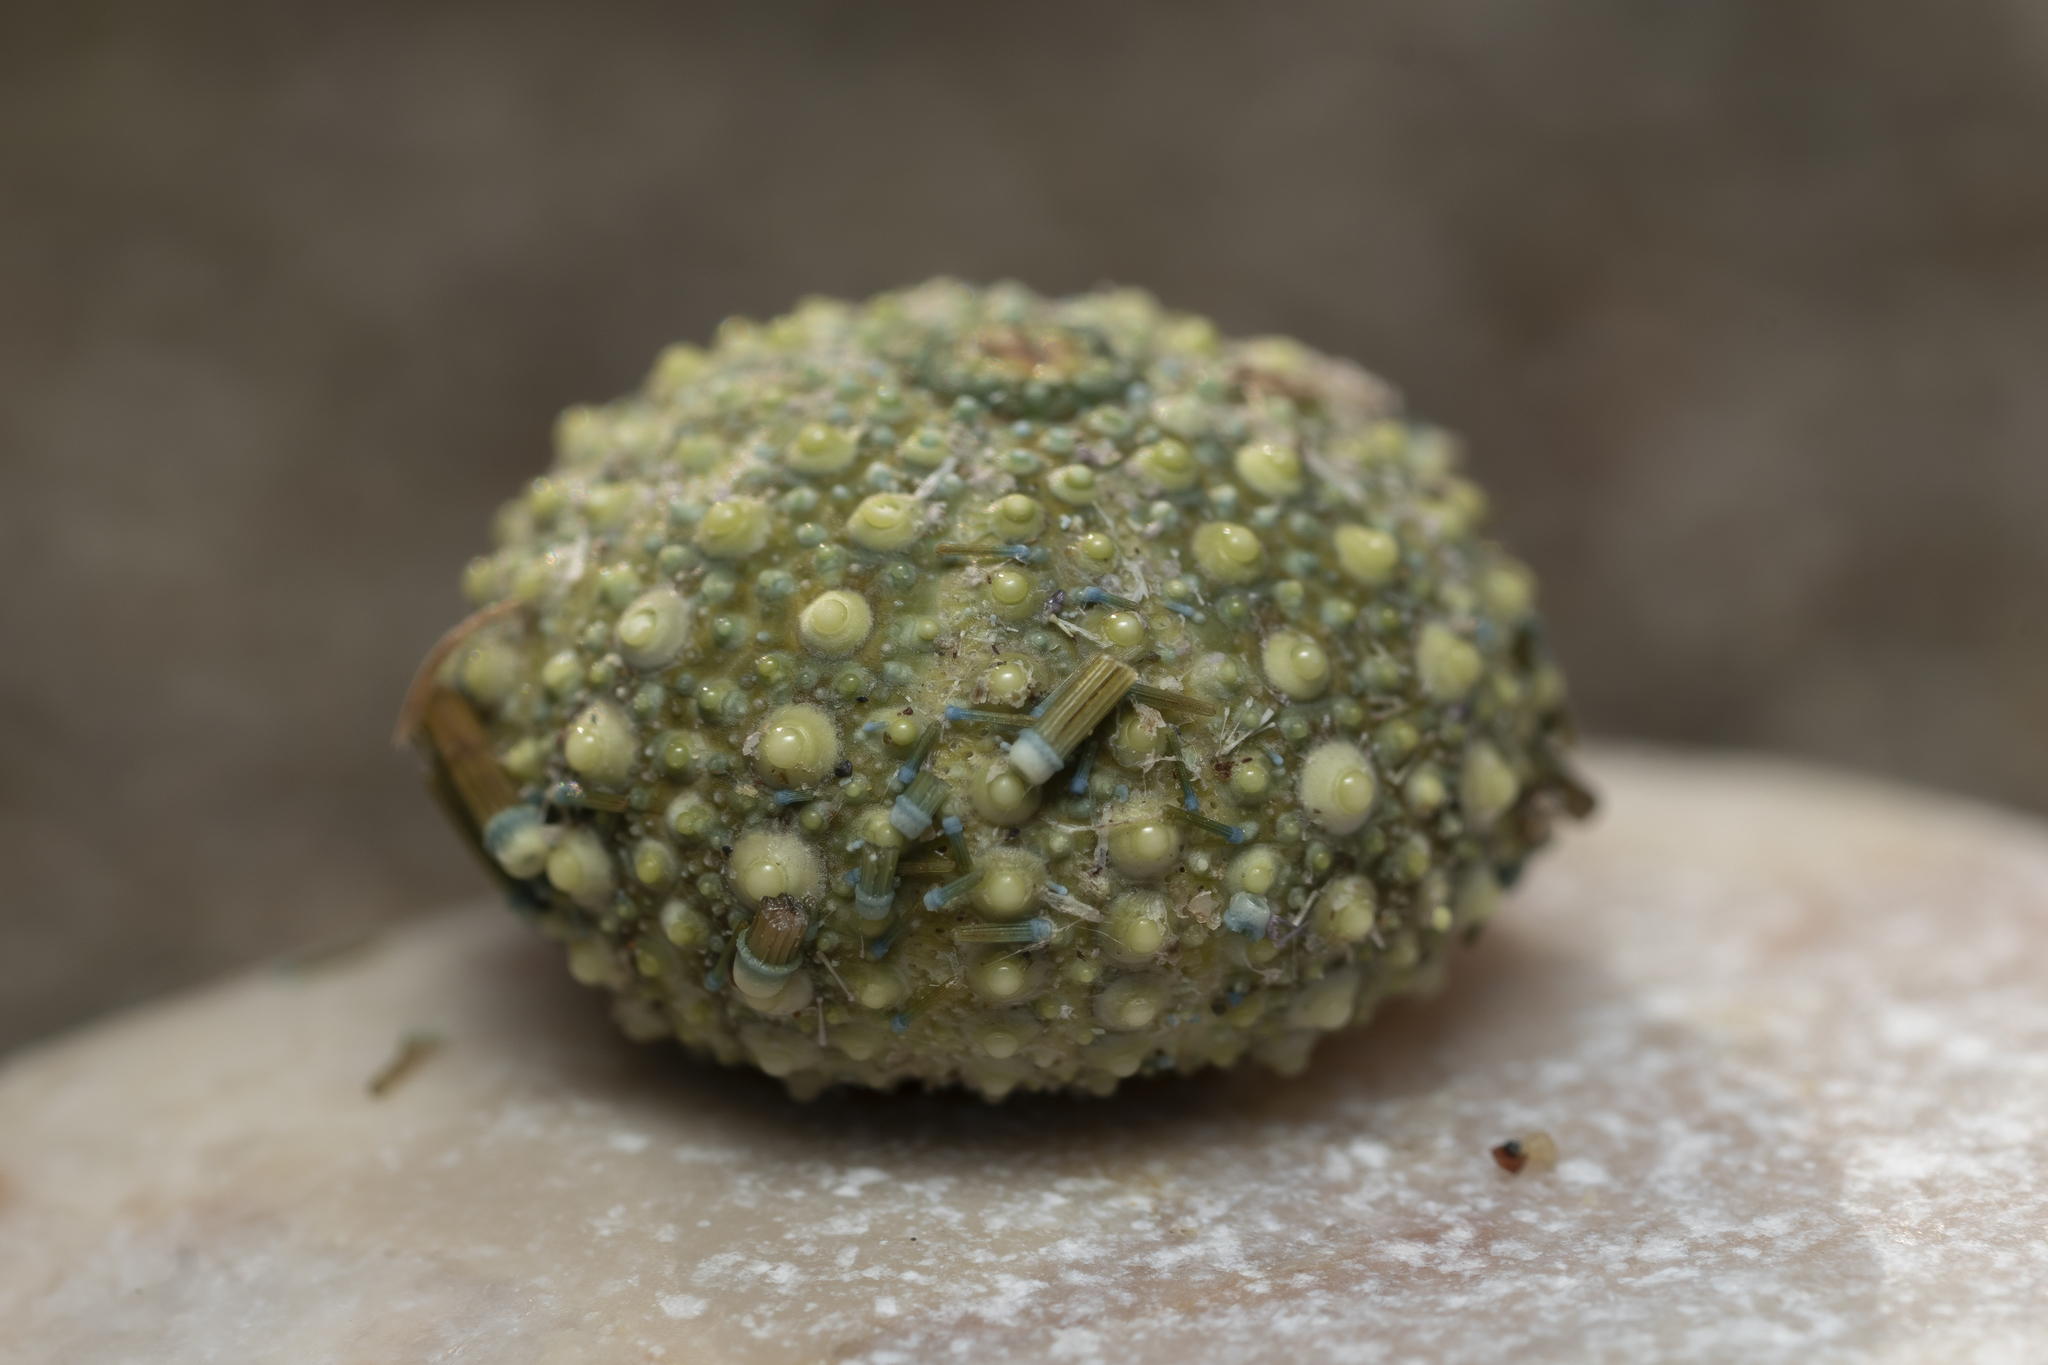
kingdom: Animalia
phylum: Echinodermata
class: Echinoidea
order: Camarodonta
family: Parechinidae
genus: Paracentrotus
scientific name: Paracentrotus lividus
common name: Purple sea urchin
